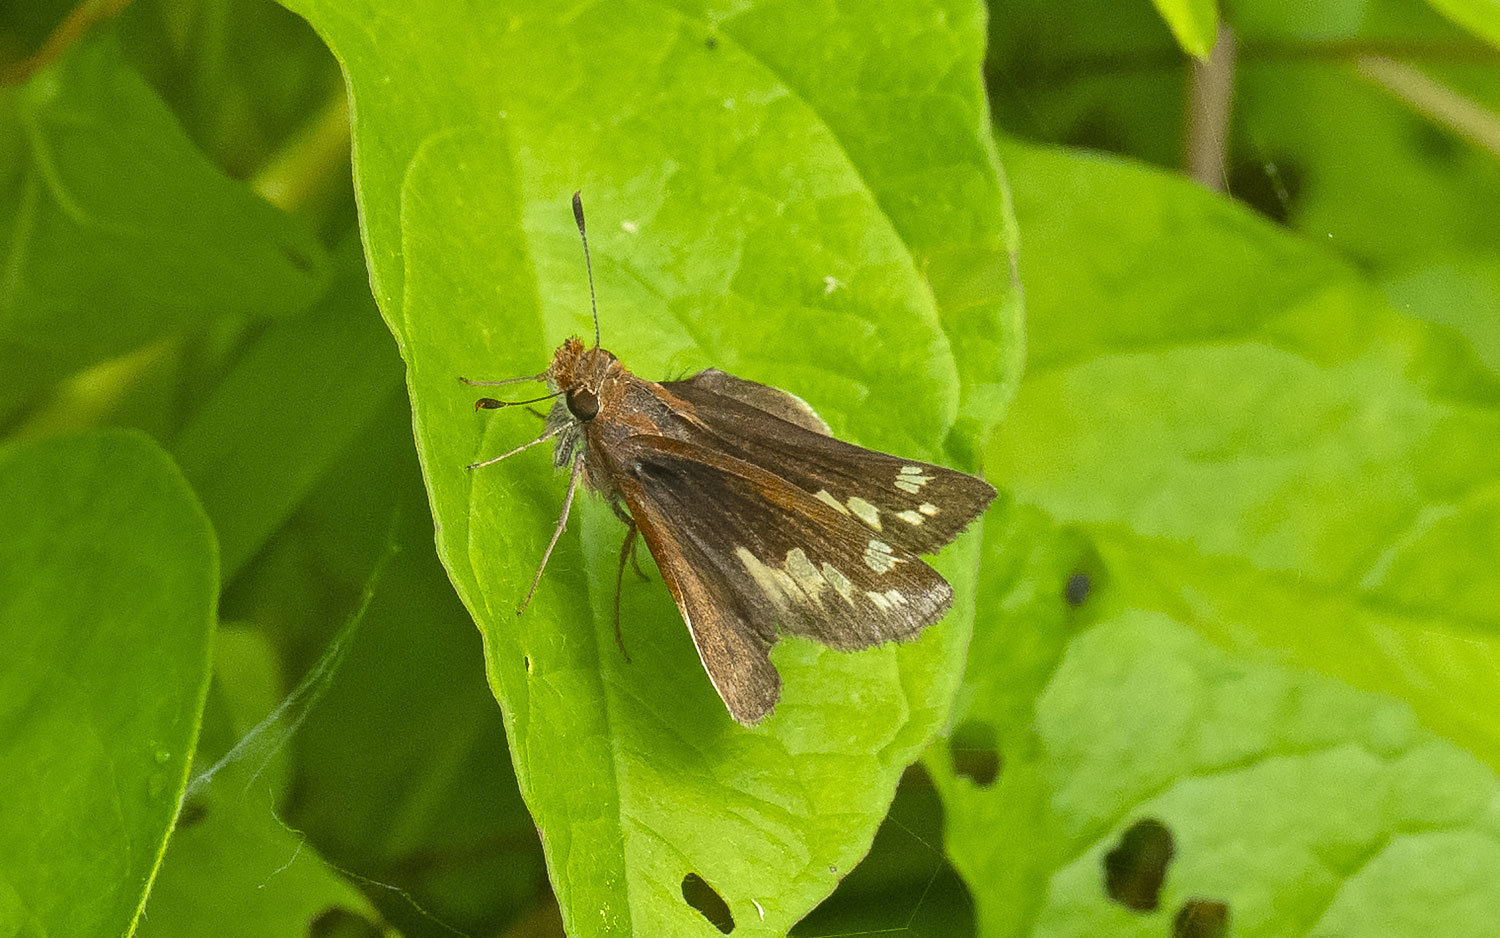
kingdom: Animalia
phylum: Arthropoda
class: Insecta
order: Lepidoptera
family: Hesperiidae
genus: Lon
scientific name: Lon zabulon
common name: Zabulon skipper
